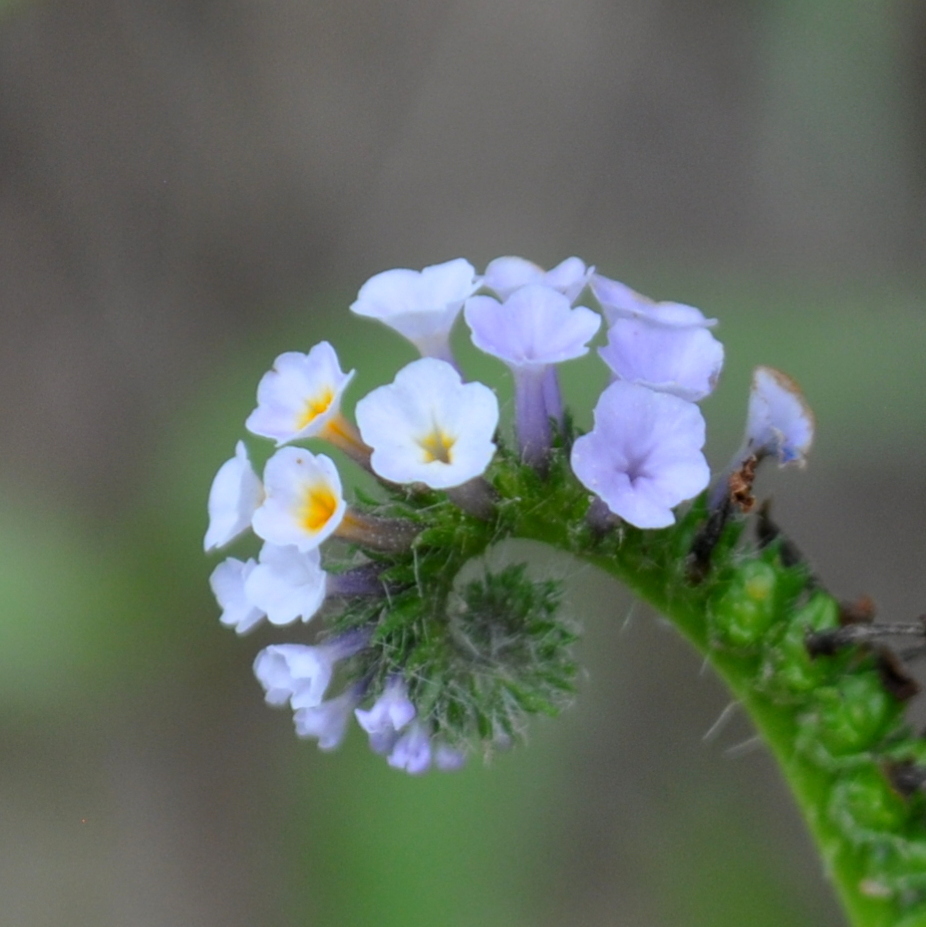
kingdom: Plantae
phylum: Tracheophyta
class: Magnoliopsida
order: Boraginales
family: Heliotropiaceae
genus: Heliotropium
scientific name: Heliotropium nicotianifolium
